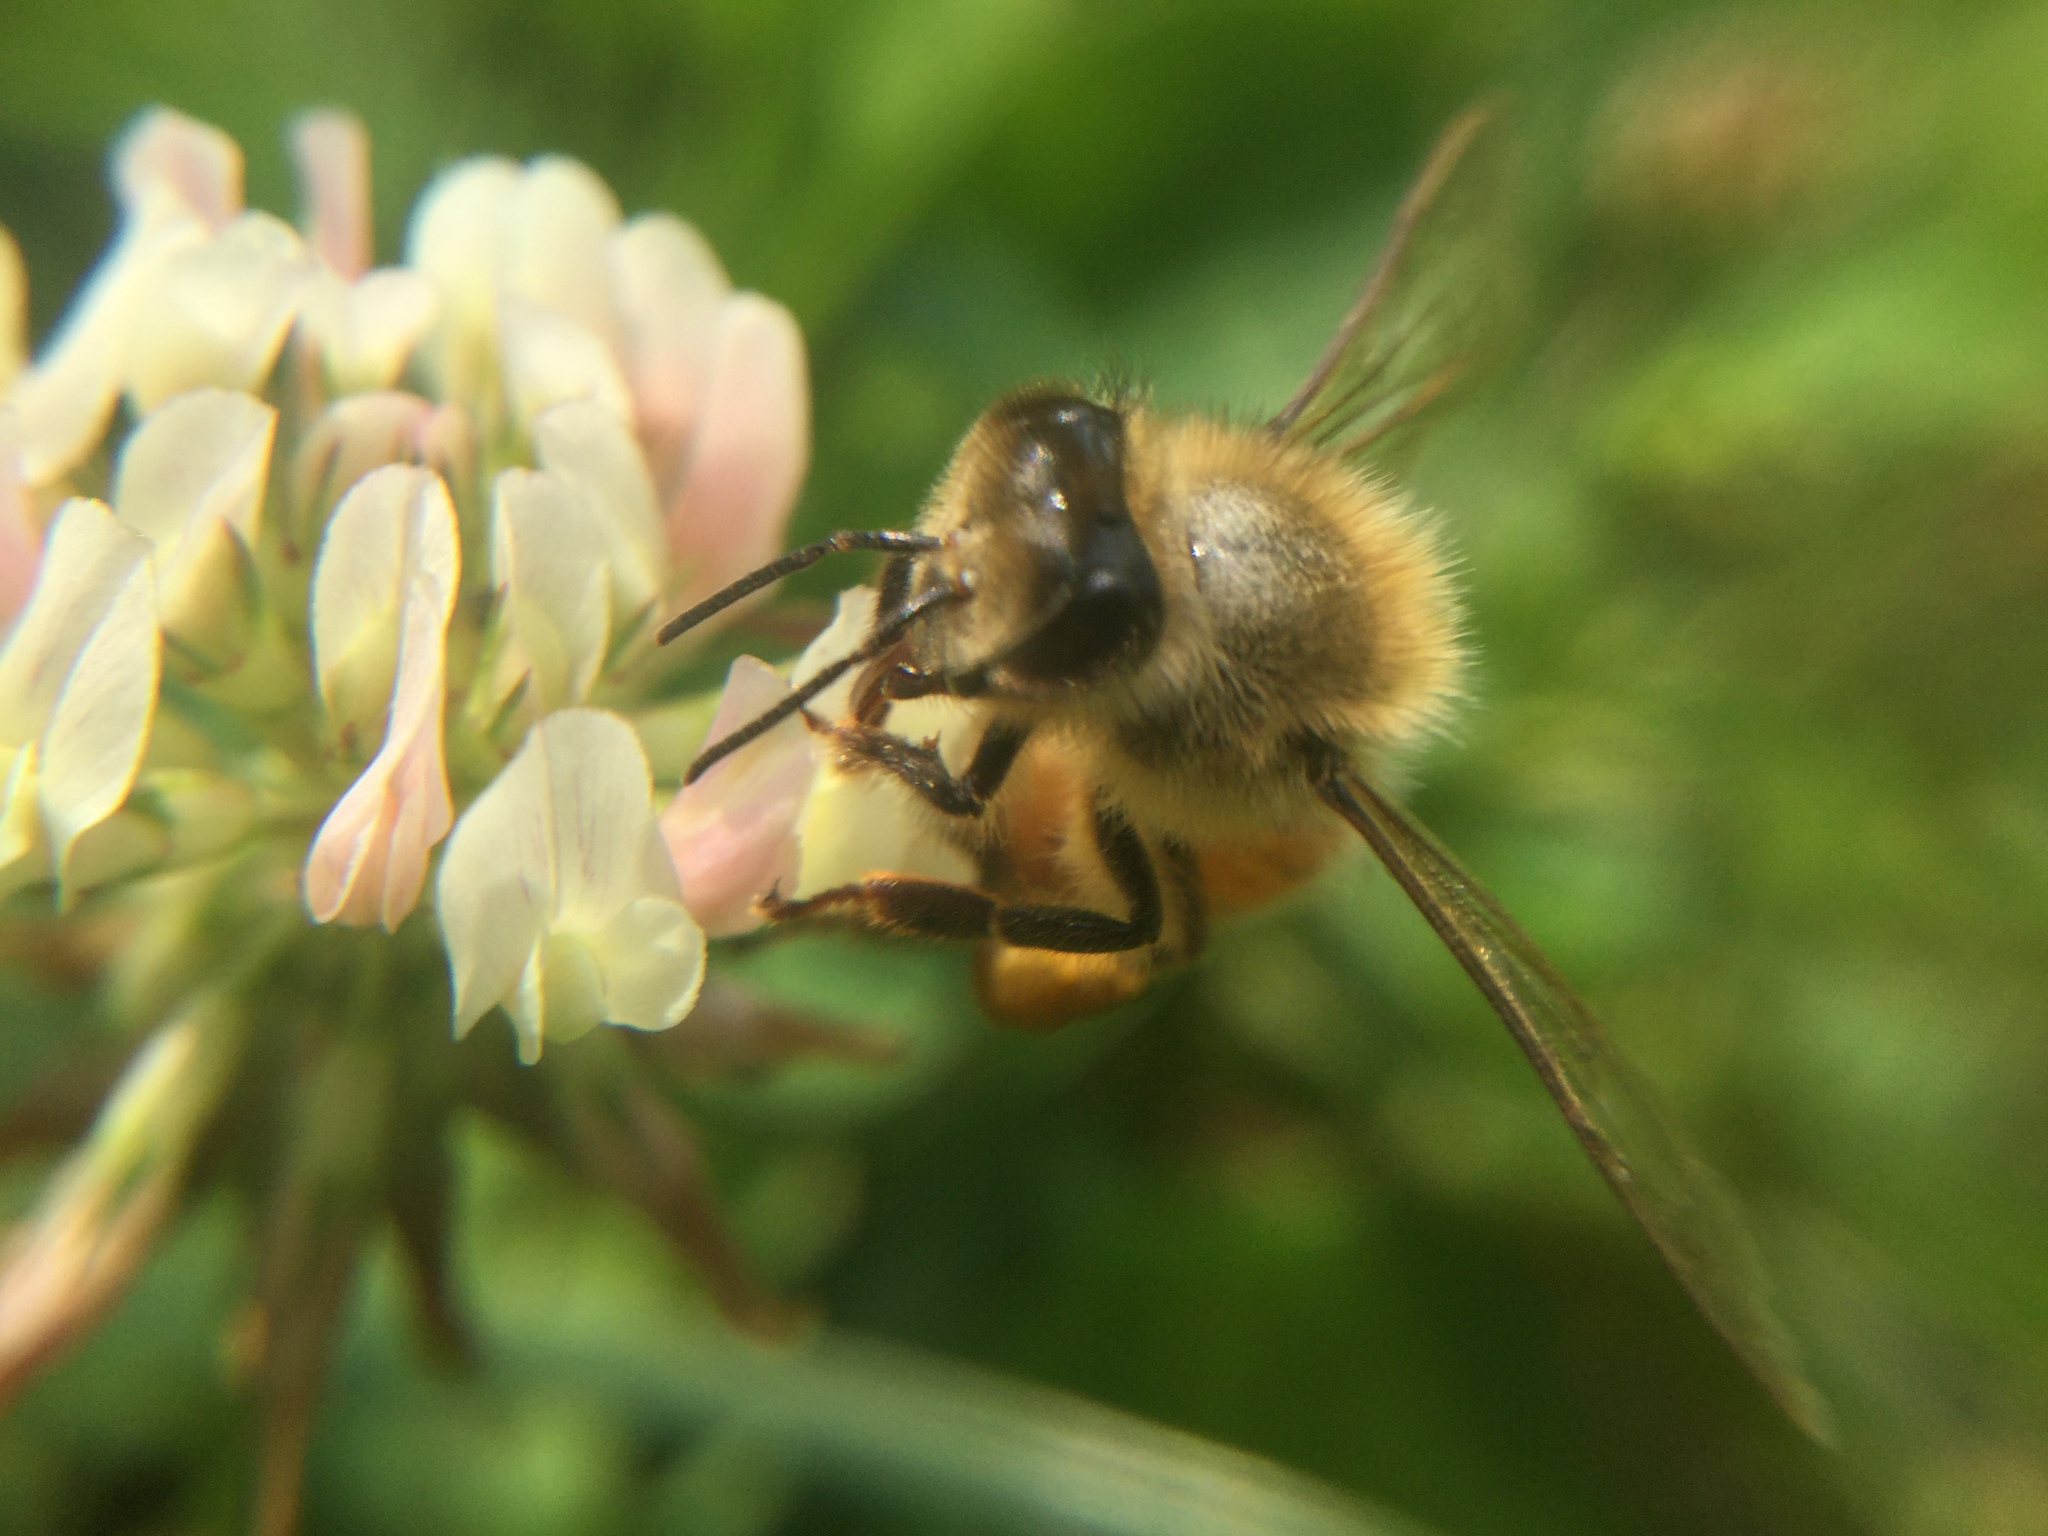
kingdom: Animalia
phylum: Arthropoda
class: Insecta
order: Hymenoptera
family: Apidae
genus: Apis
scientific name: Apis mellifera
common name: Honey bee
